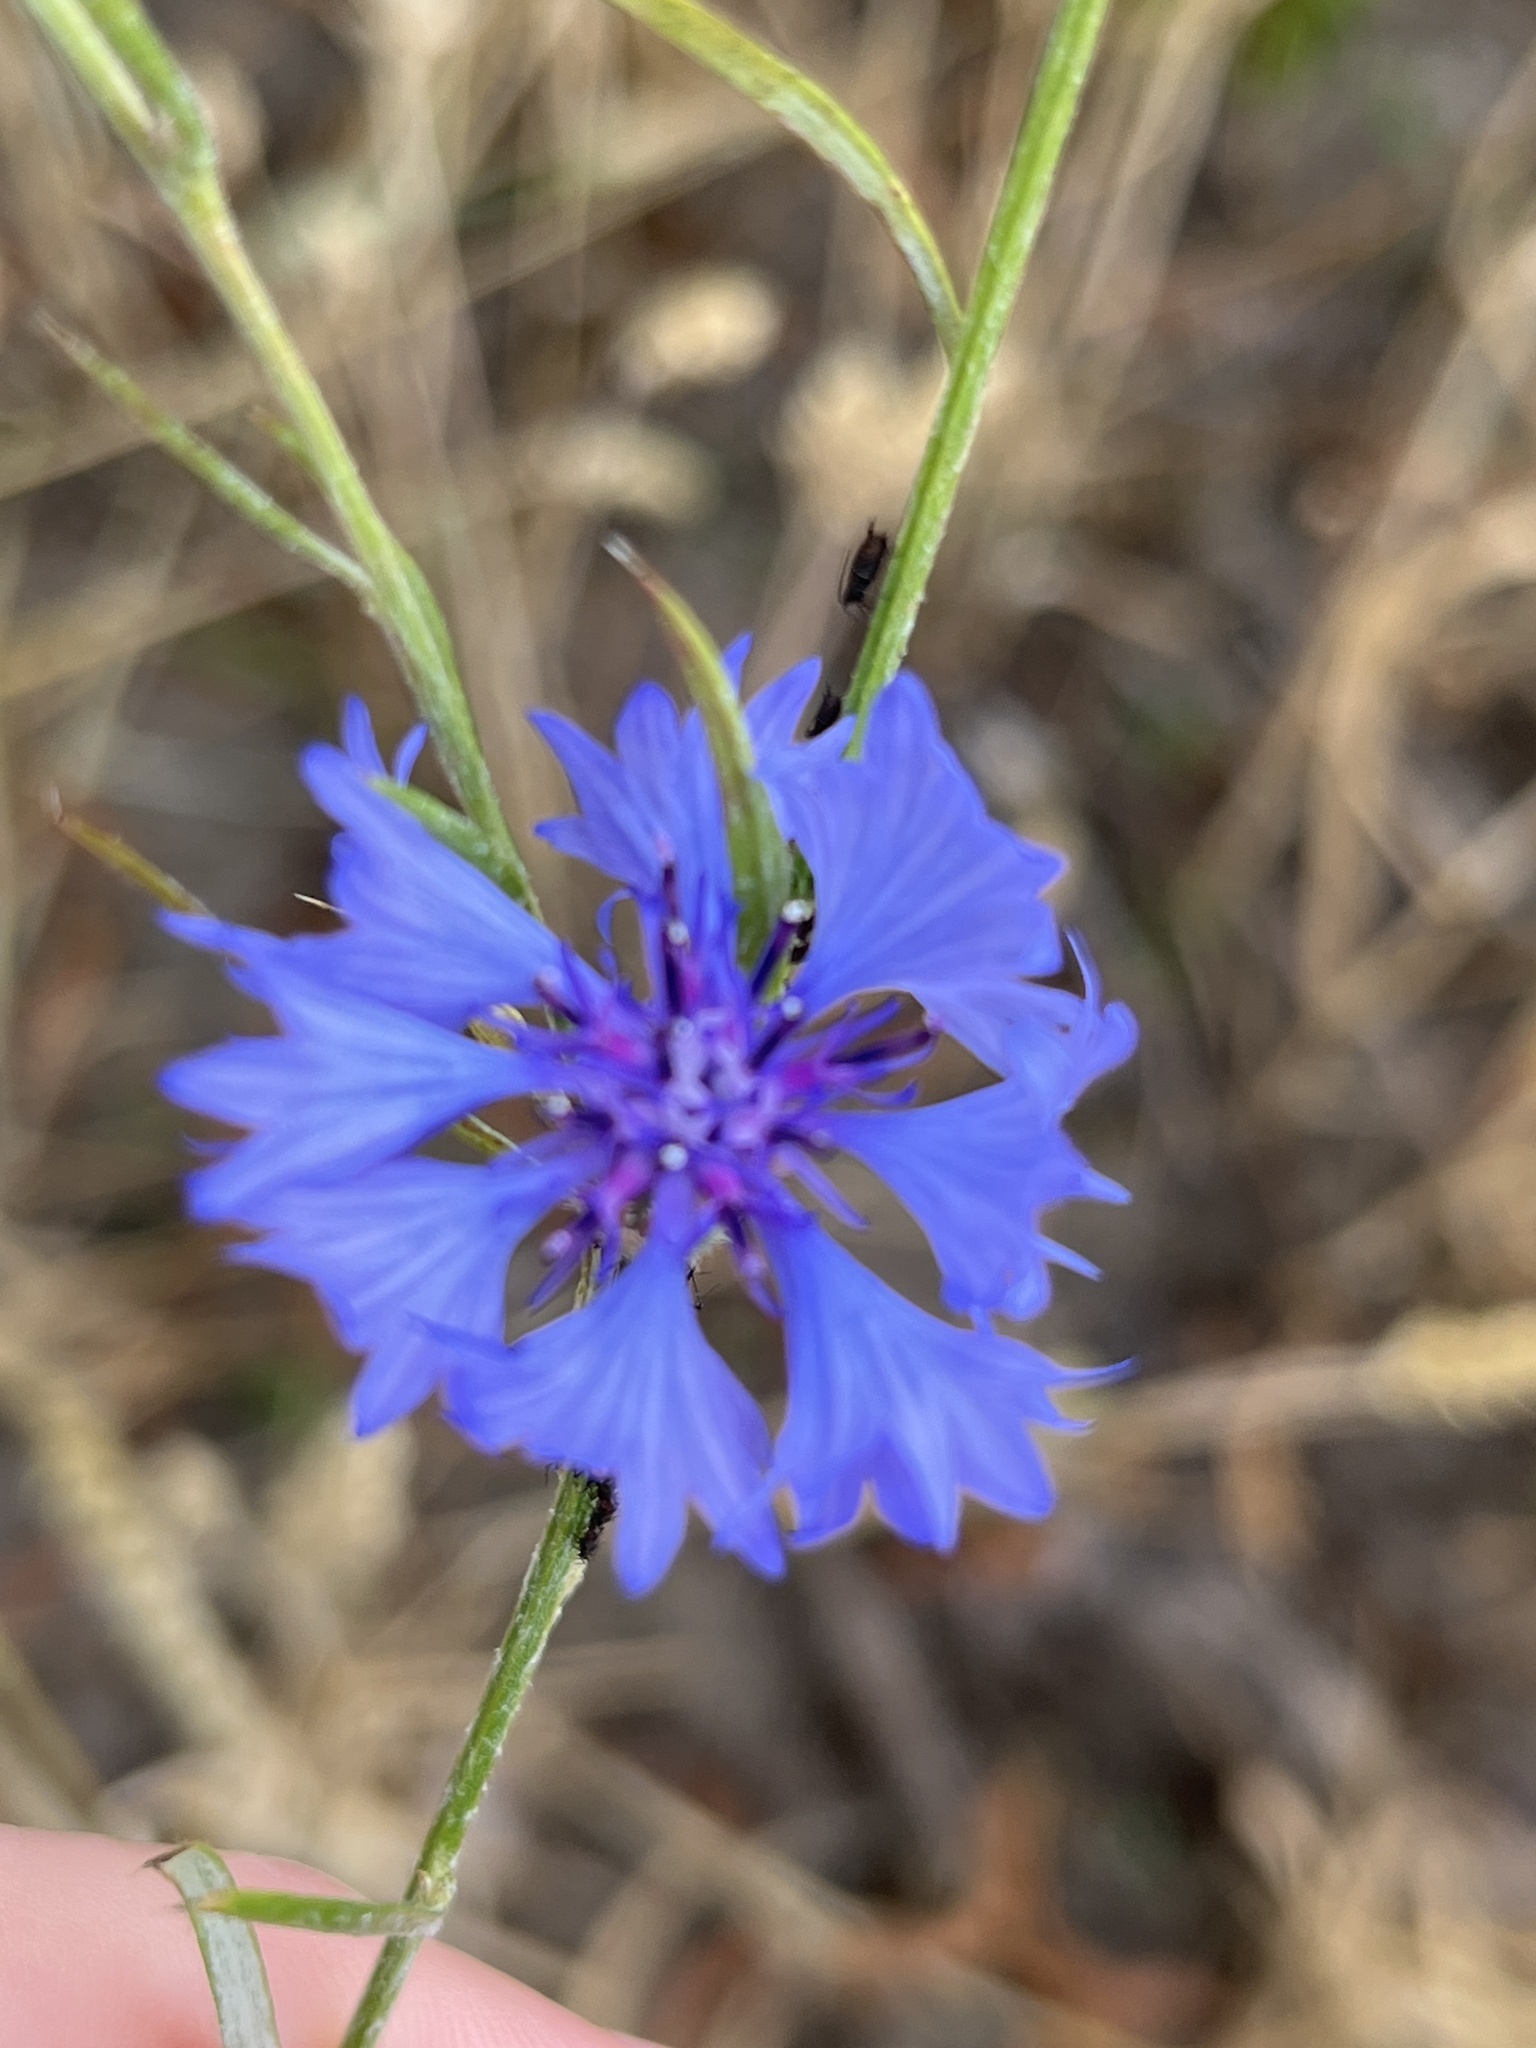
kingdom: Plantae
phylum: Tracheophyta
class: Magnoliopsida
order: Asterales
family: Asteraceae
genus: Centaurea
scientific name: Centaurea cyanus
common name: Cornflower
